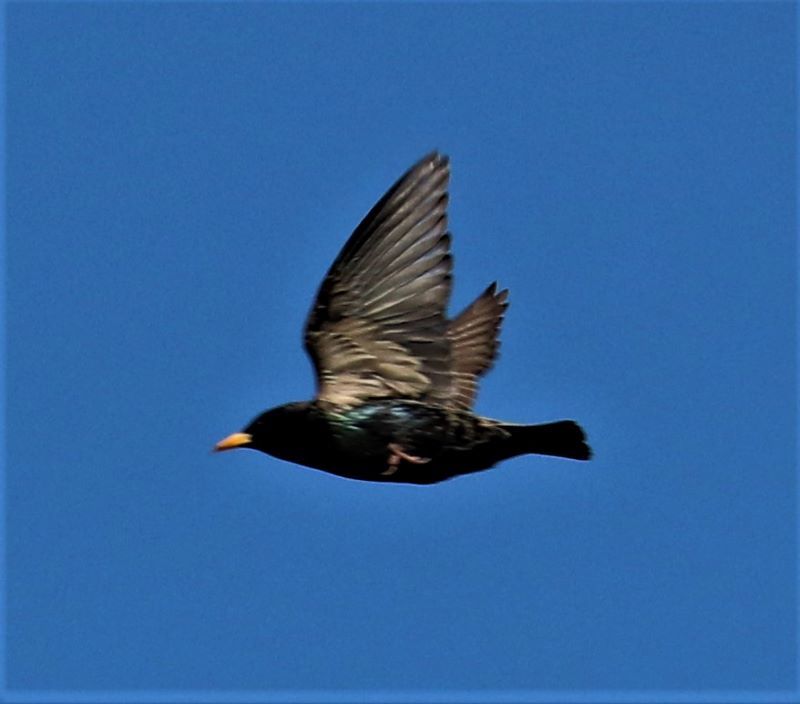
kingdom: Animalia
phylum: Chordata
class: Aves
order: Passeriformes
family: Sturnidae
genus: Sturnus
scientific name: Sturnus vulgaris
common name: Common starling
